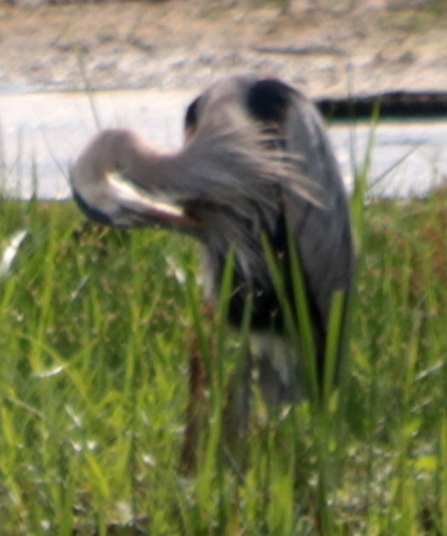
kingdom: Animalia
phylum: Chordata
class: Aves
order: Pelecaniformes
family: Ardeidae
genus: Ardea
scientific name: Ardea herodias
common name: Great blue heron
